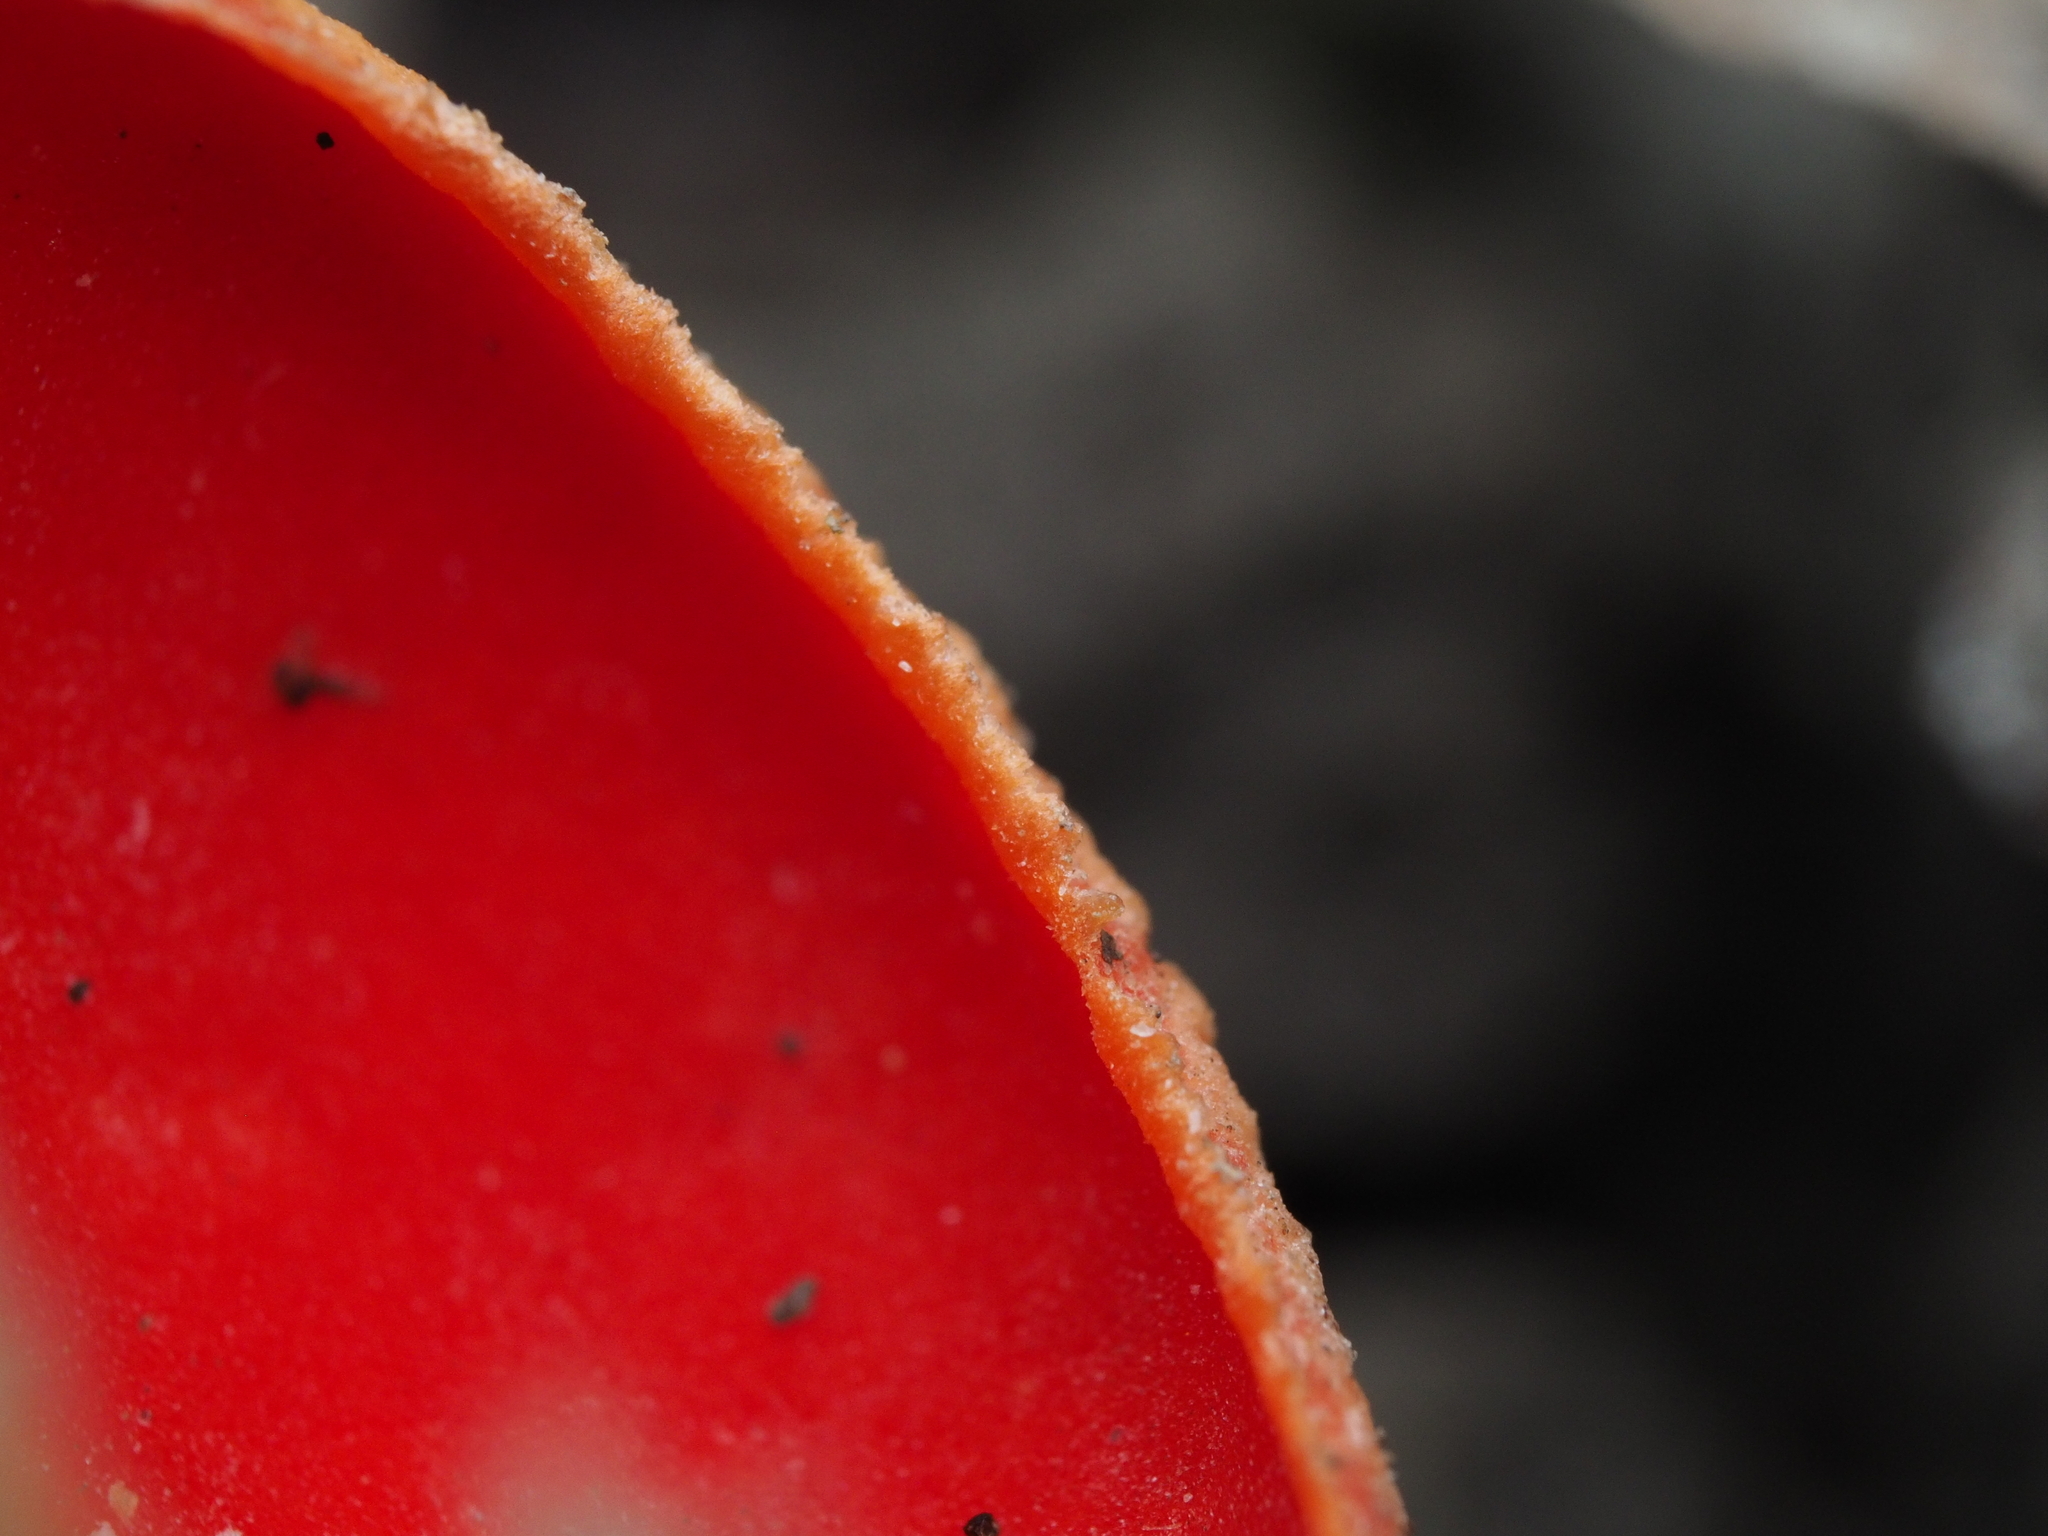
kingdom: Fungi
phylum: Ascomycota
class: Pezizomycetes
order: Pezizales
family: Sarcoscyphaceae
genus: Sarcoscypha
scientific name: Sarcoscypha
